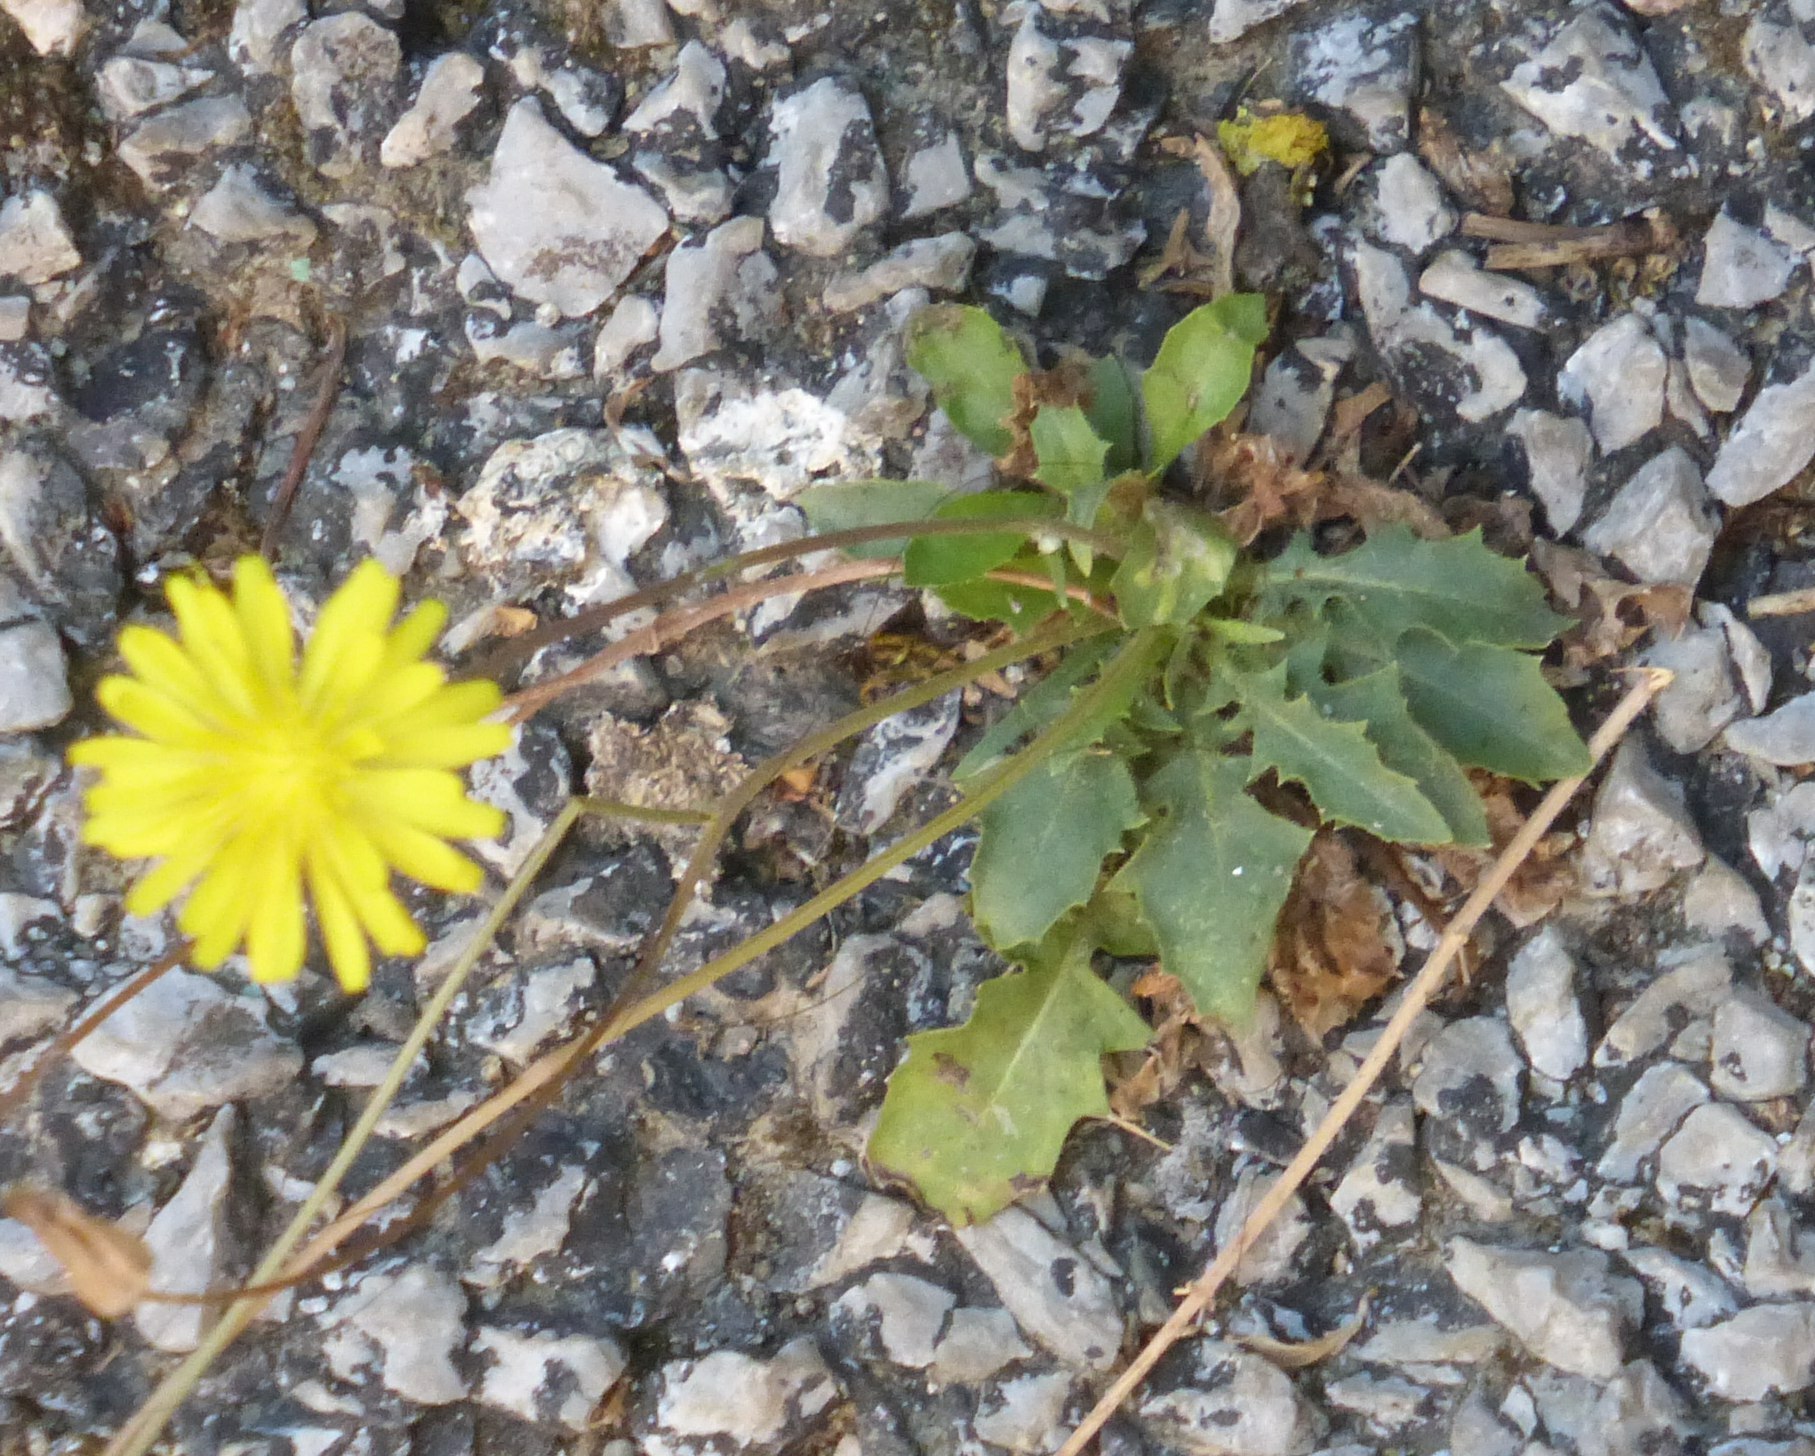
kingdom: Plantae
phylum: Tracheophyta
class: Magnoliopsida
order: Asterales
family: Asteraceae
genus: Crepis
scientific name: Crepis bursifolia
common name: Italian hawksbeard
